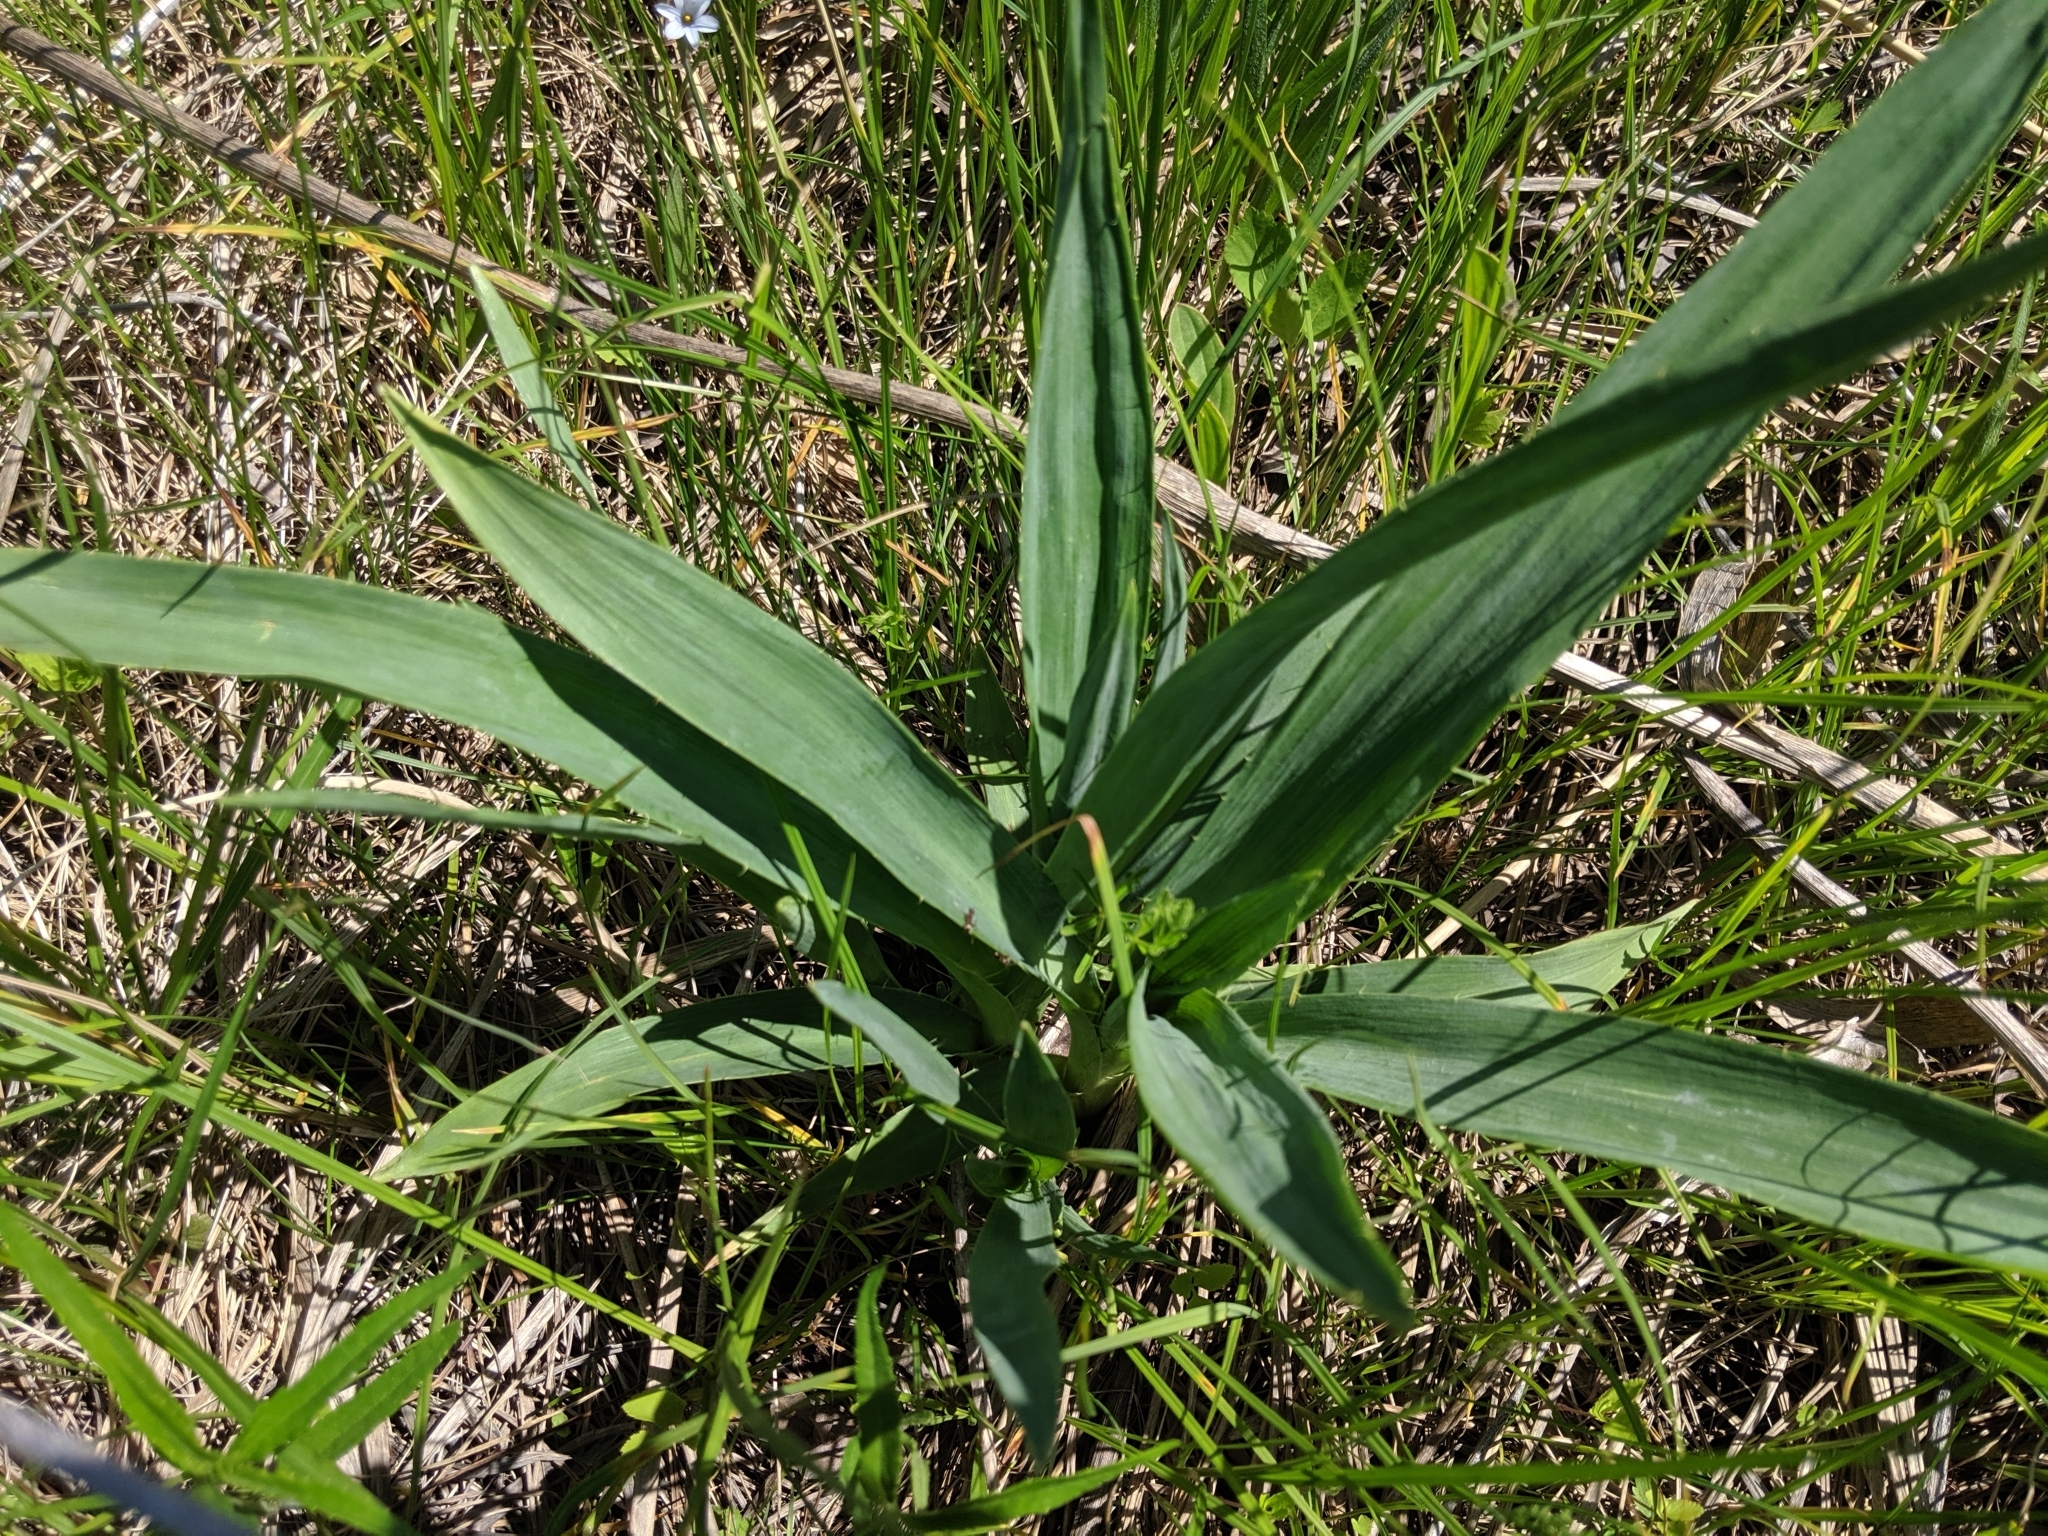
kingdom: Plantae
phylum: Tracheophyta
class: Magnoliopsida
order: Apiales
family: Apiaceae
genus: Eryngium
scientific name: Eryngium yuccifolium
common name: Button eryngo
